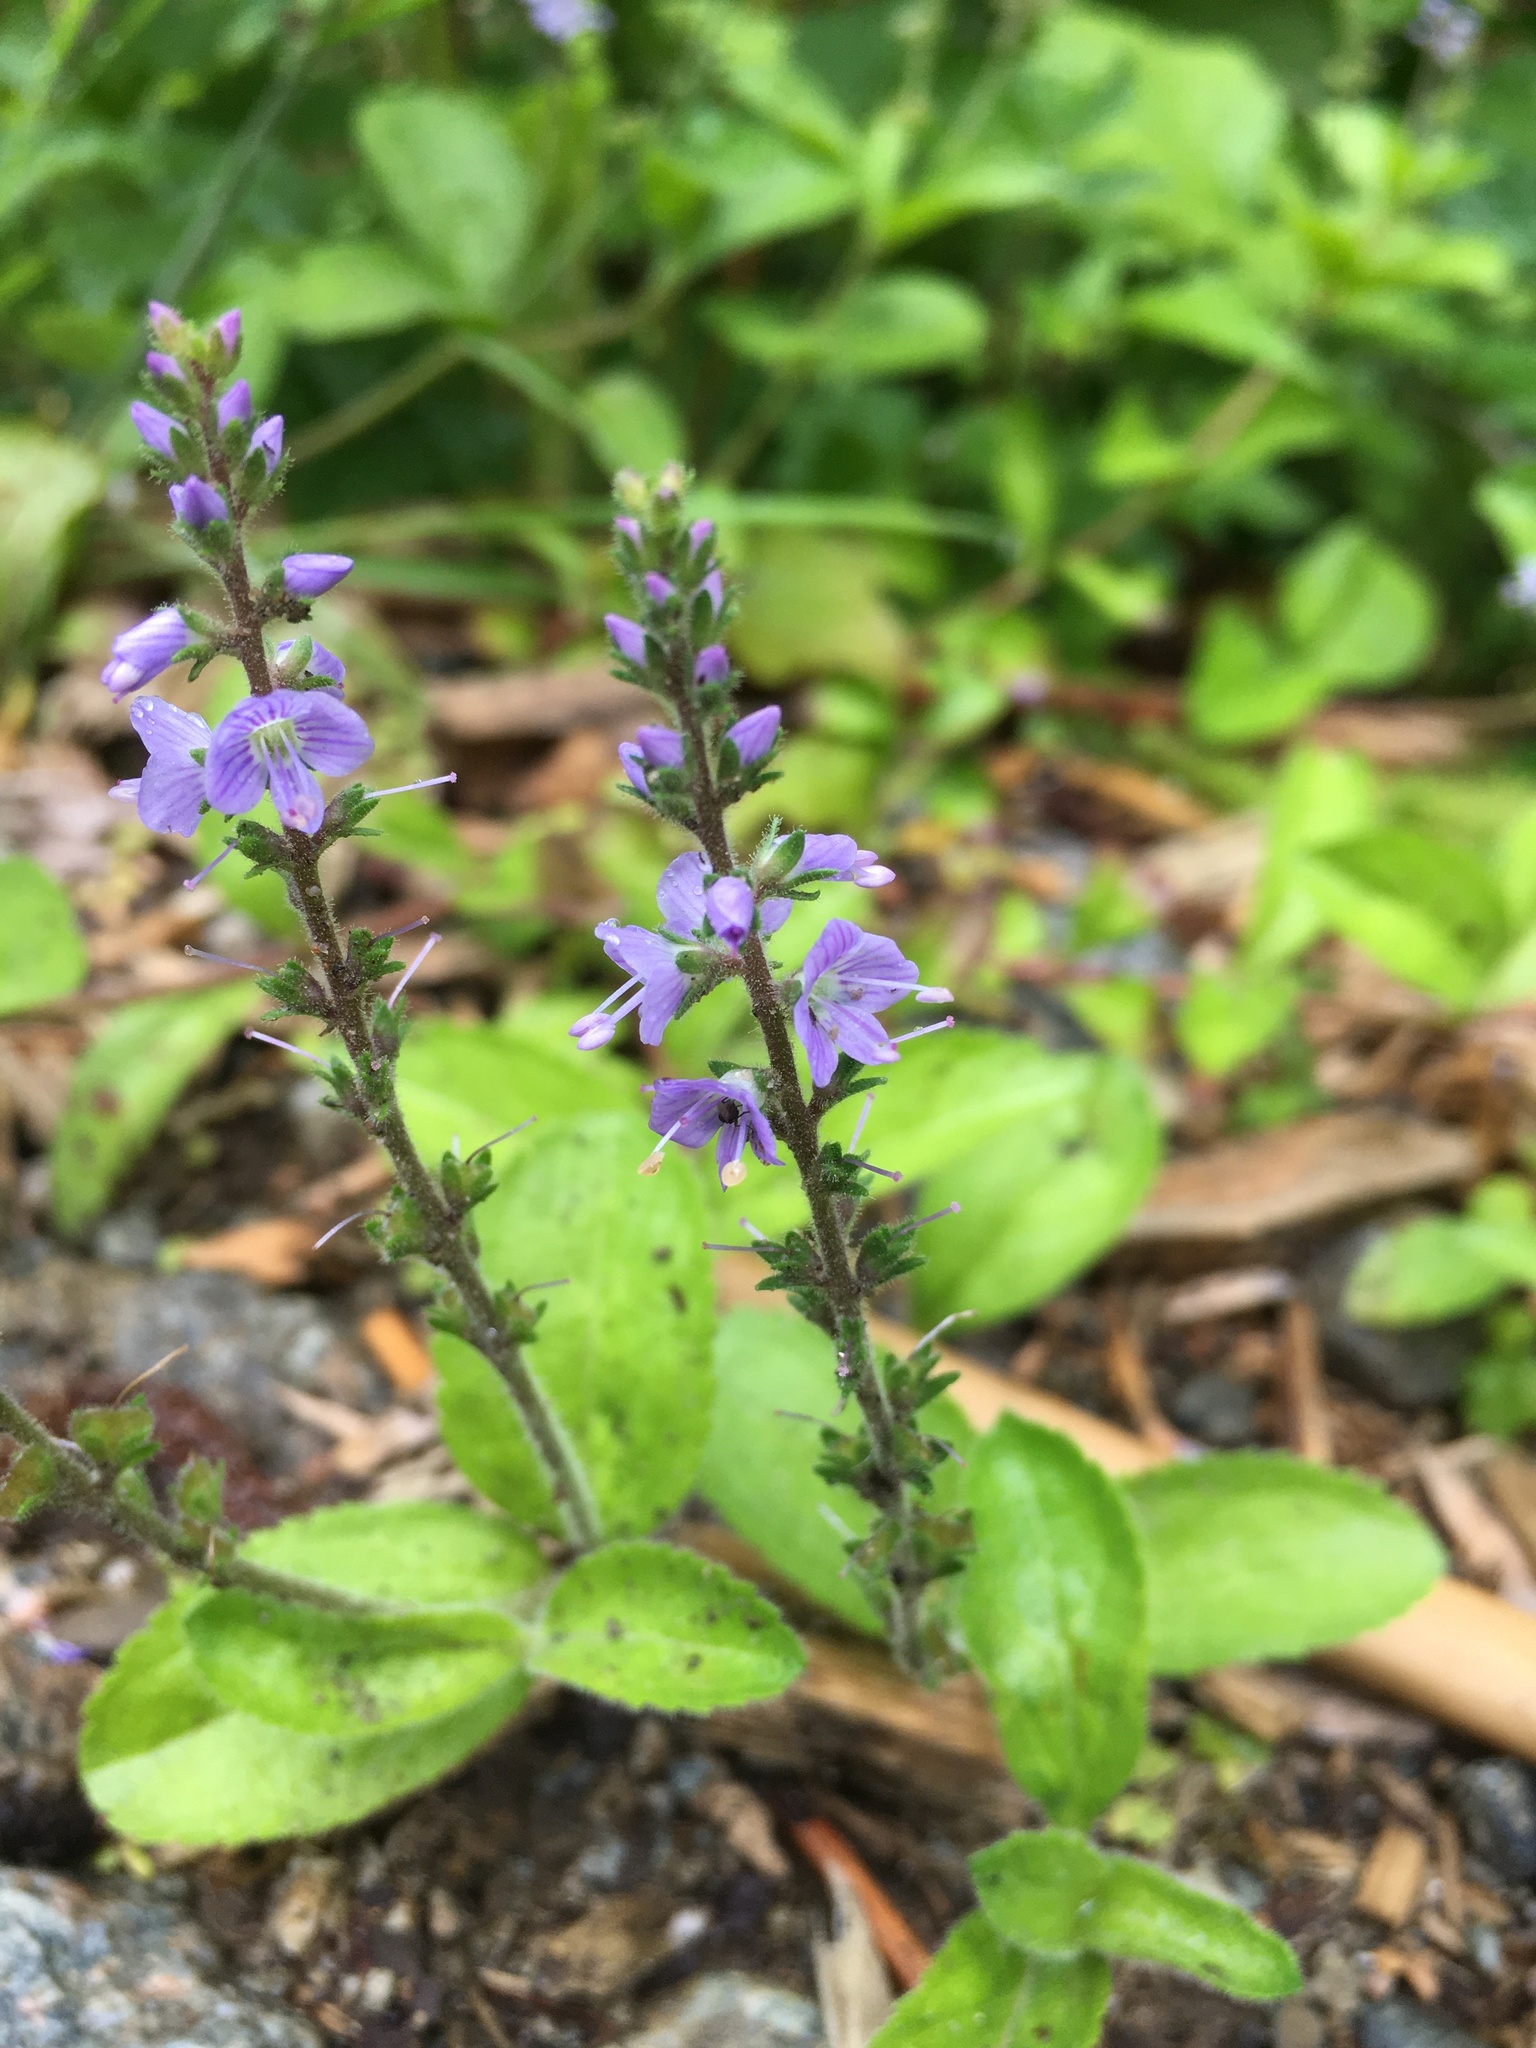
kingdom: Plantae
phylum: Tracheophyta
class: Magnoliopsida
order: Lamiales
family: Plantaginaceae
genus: Veronica
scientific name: Veronica officinalis
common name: Common speedwell
